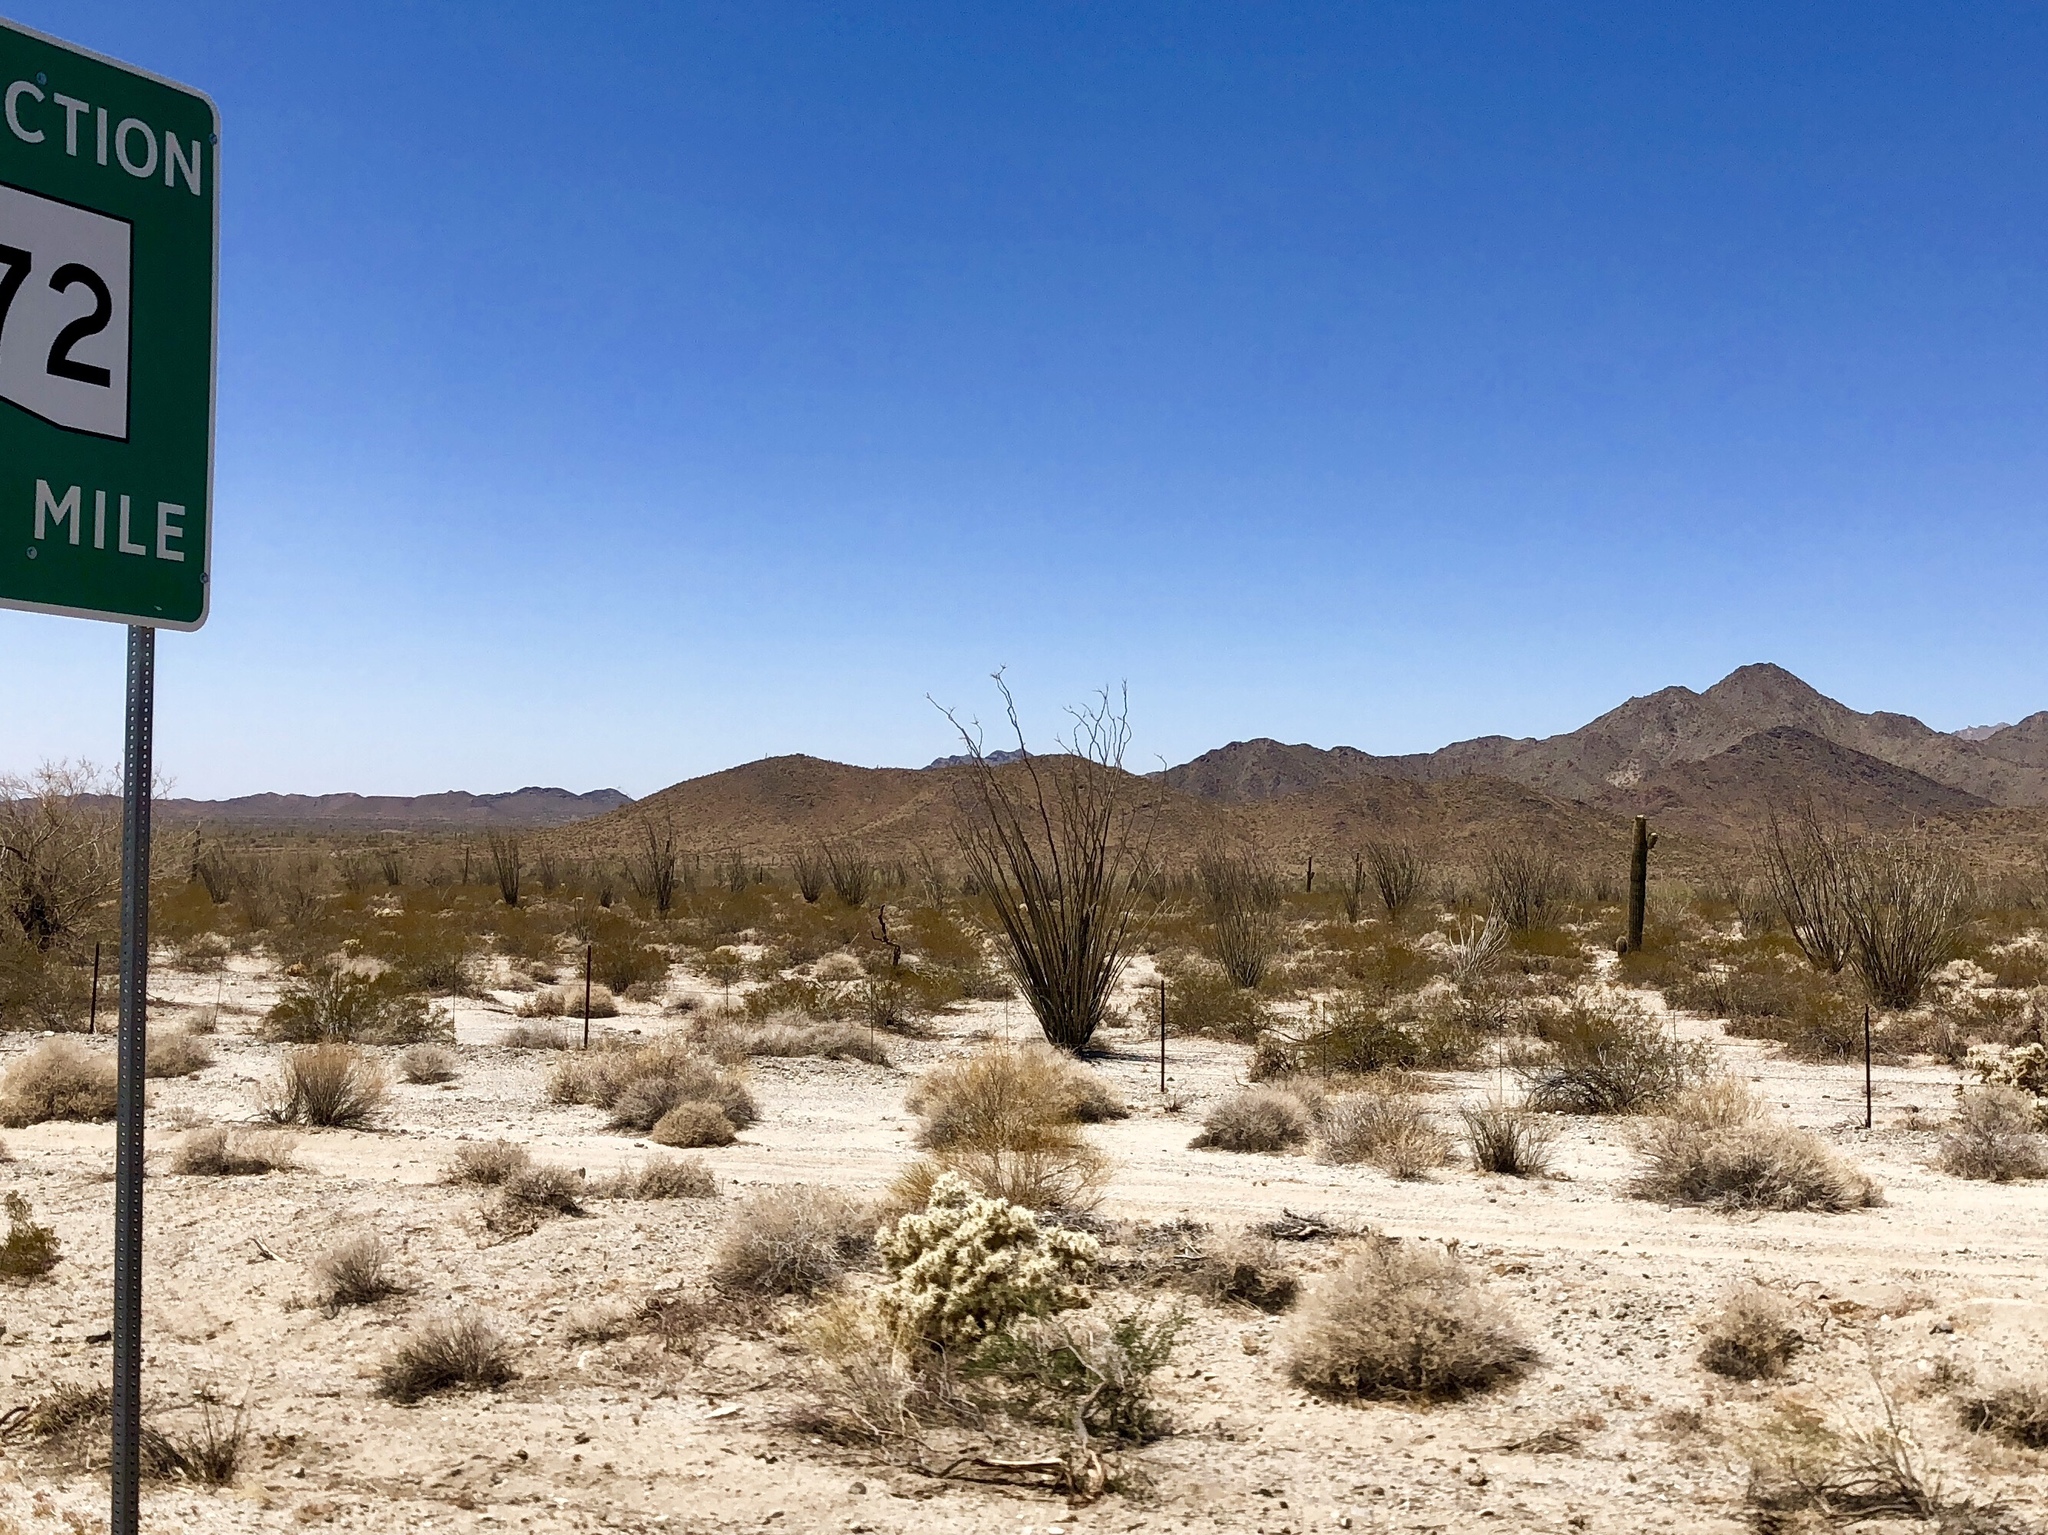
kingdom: Plantae
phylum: Tracheophyta
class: Magnoliopsida
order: Ericales
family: Fouquieriaceae
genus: Fouquieria
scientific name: Fouquieria splendens
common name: Vine-cactus
